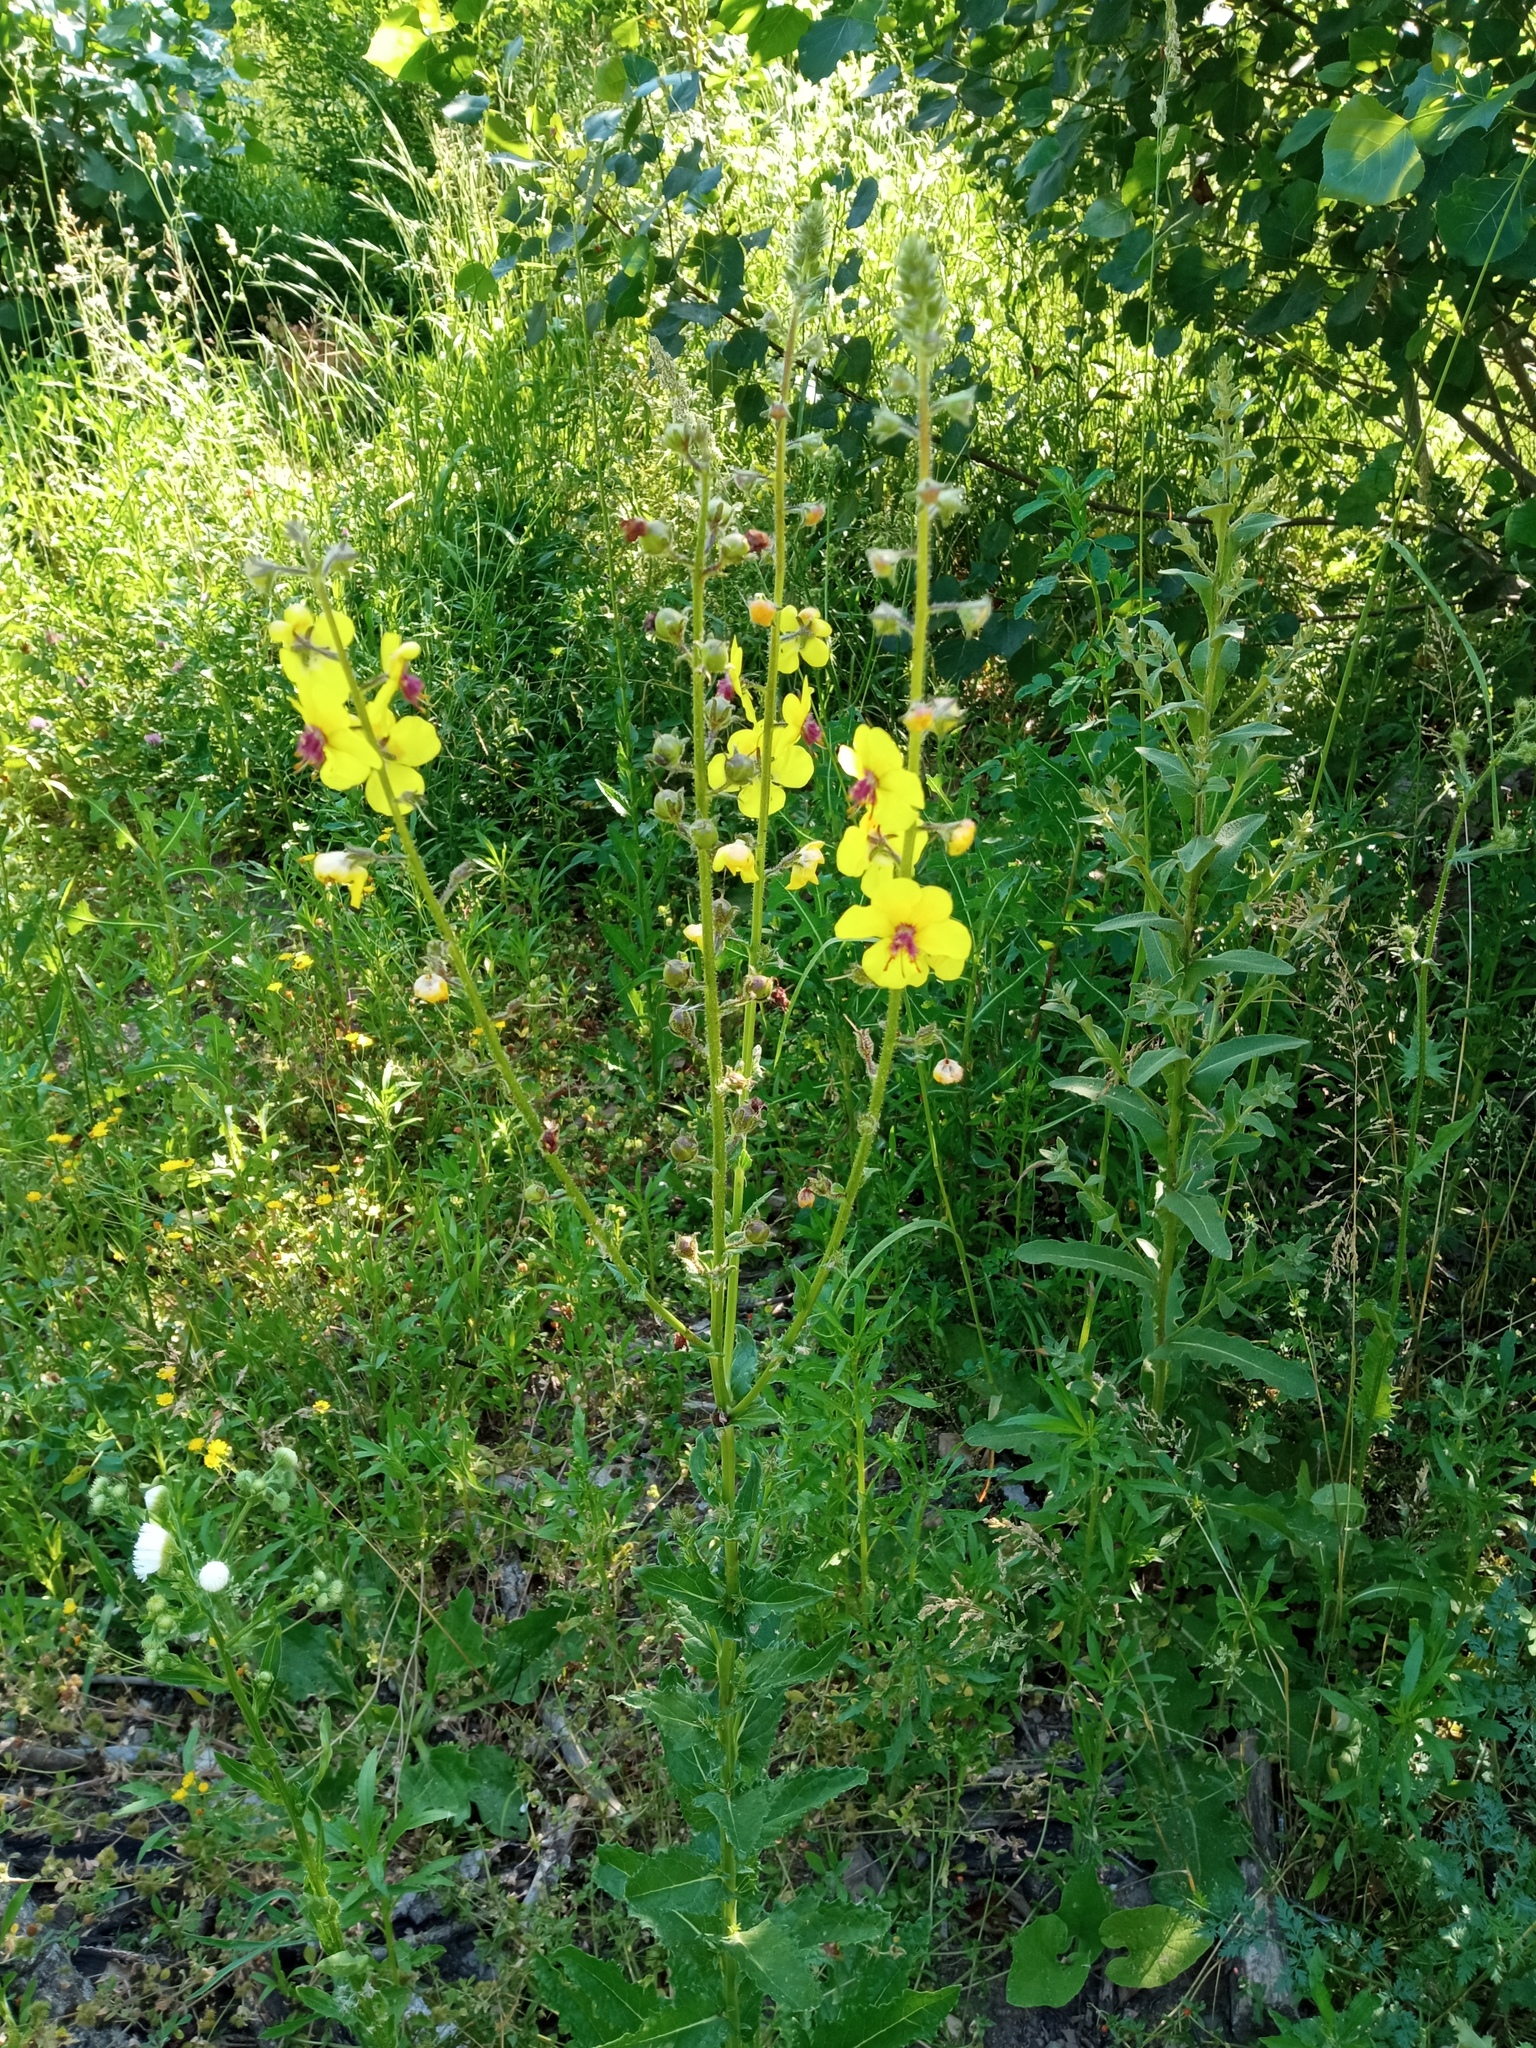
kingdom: Plantae
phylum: Tracheophyta
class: Magnoliopsida
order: Lamiales
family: Scrophulariaceae
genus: Verbascum
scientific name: Verbascum blattaria
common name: Moth mullein
